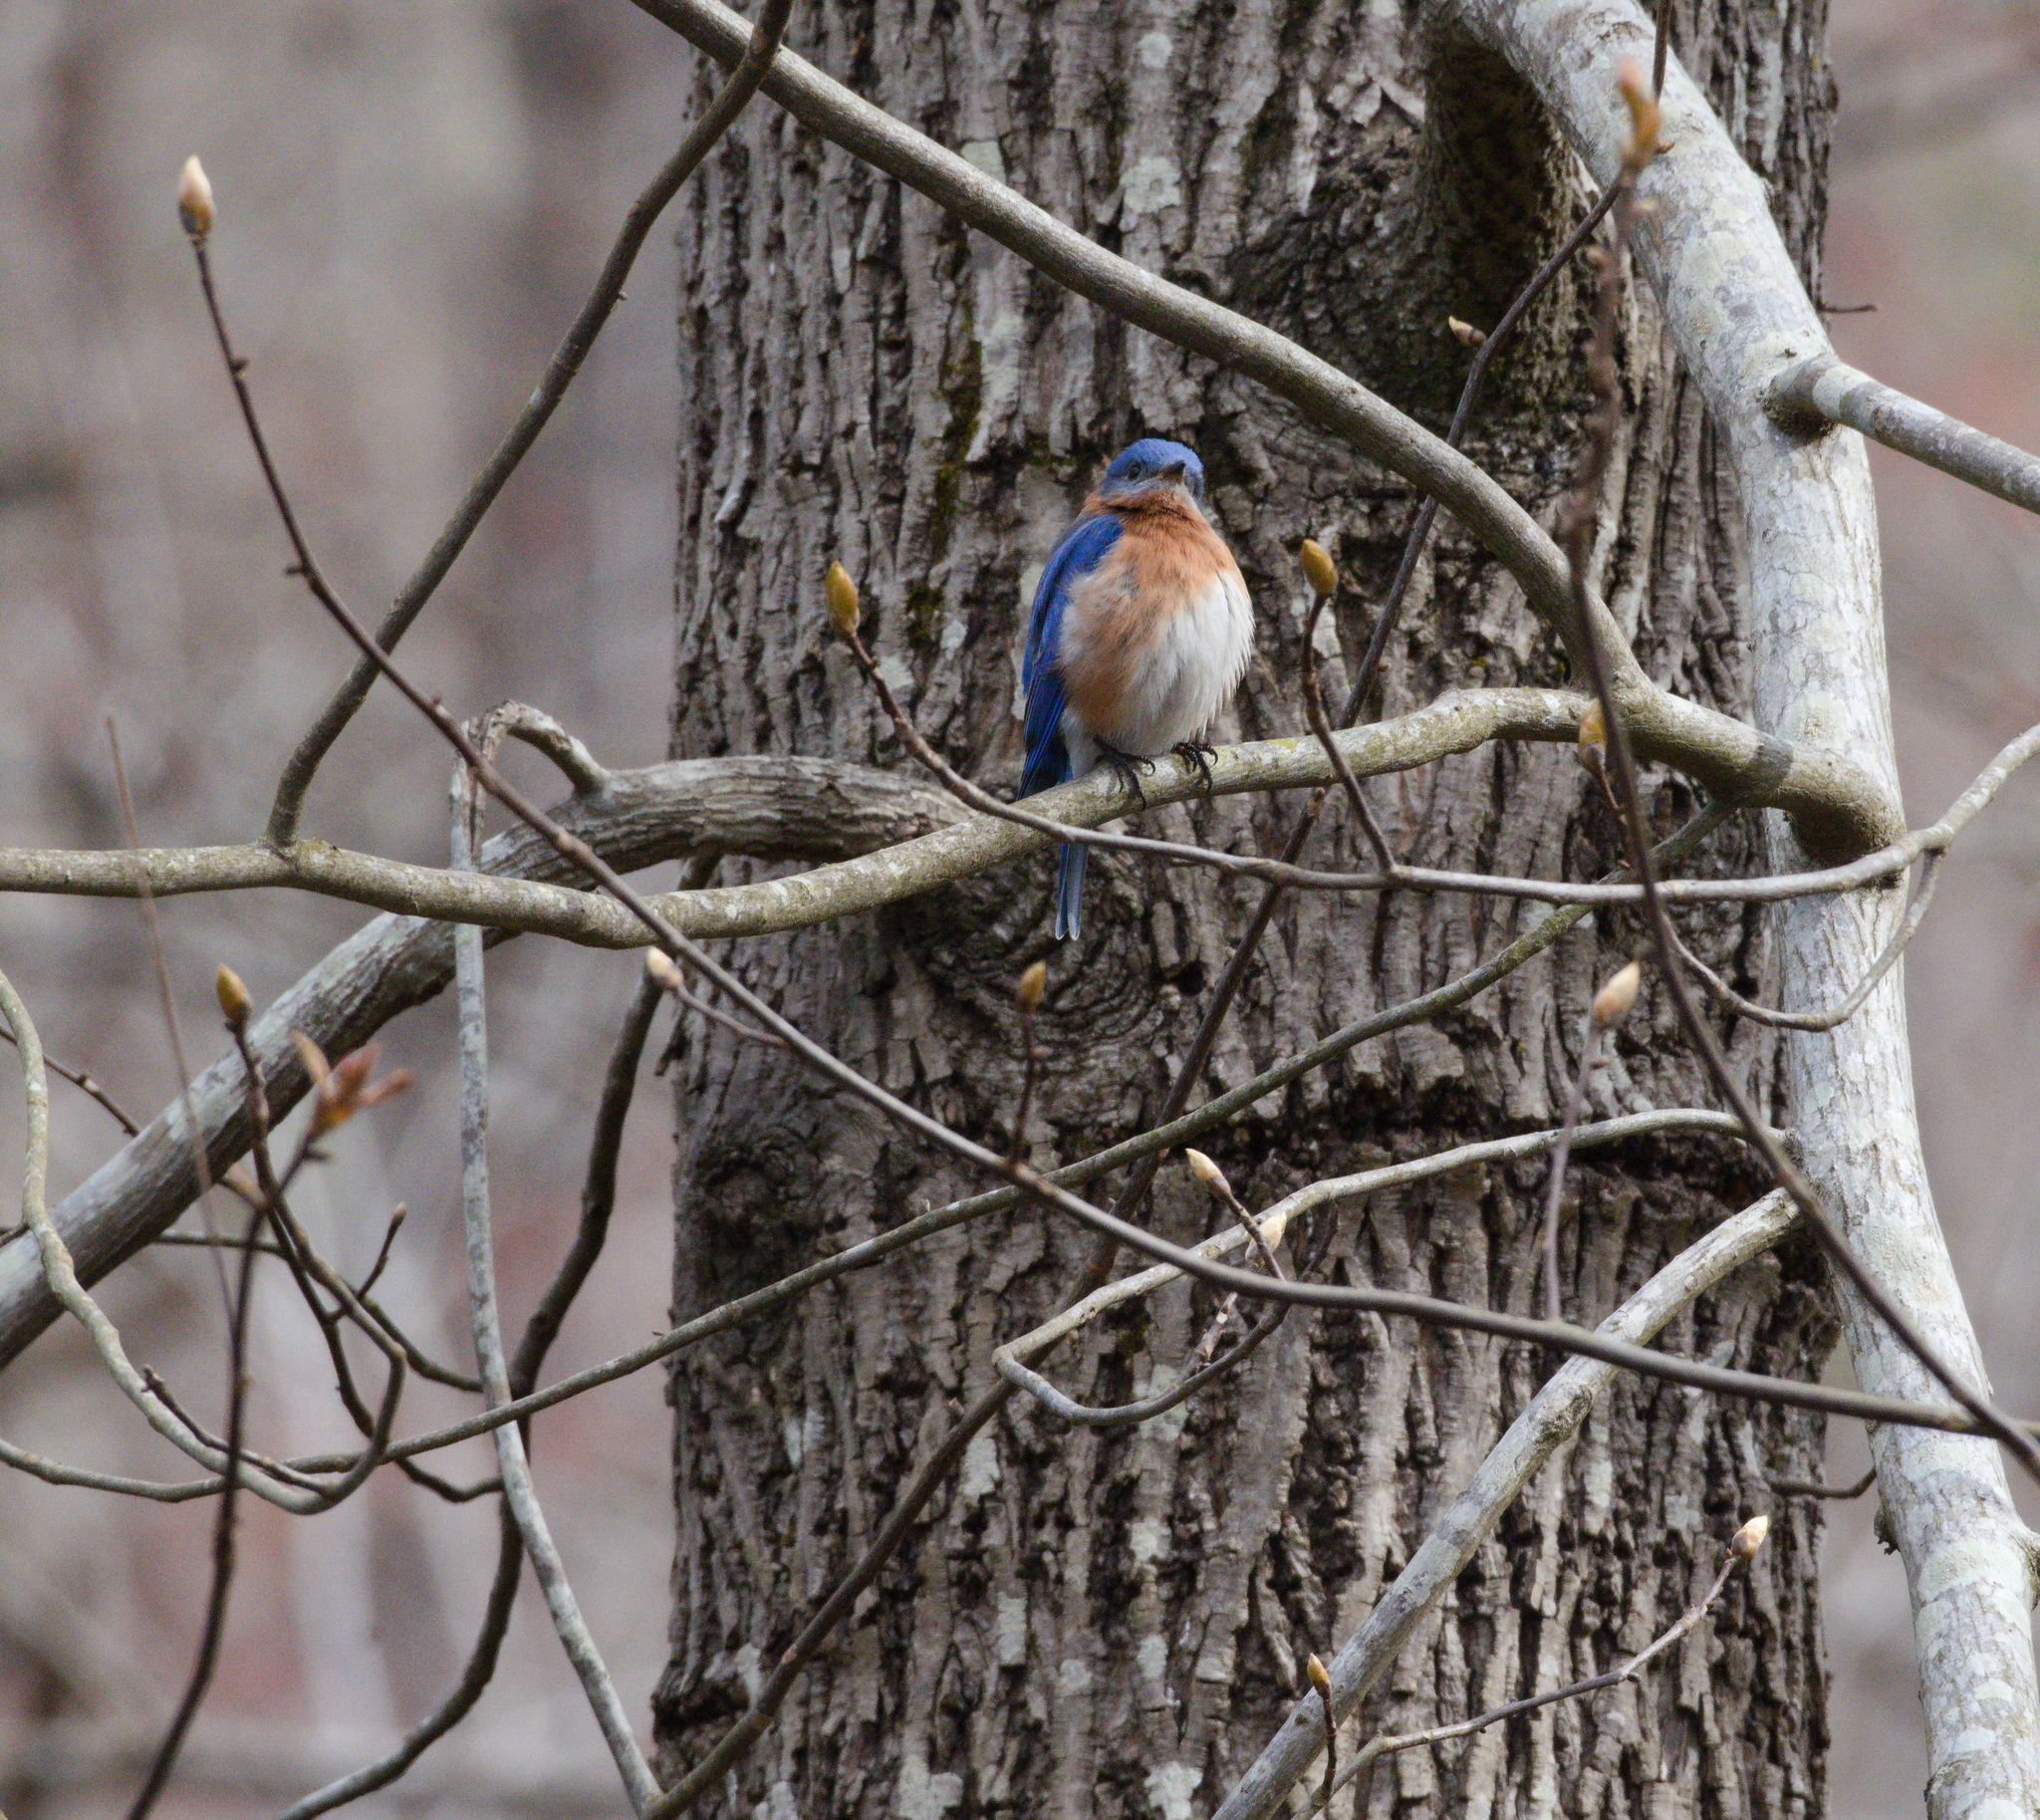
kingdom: Animalia
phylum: Chordata
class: Aves
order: Passeriformes
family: Turdidae
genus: Sialia
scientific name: Sialia sialis
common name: Eastern bluebird
